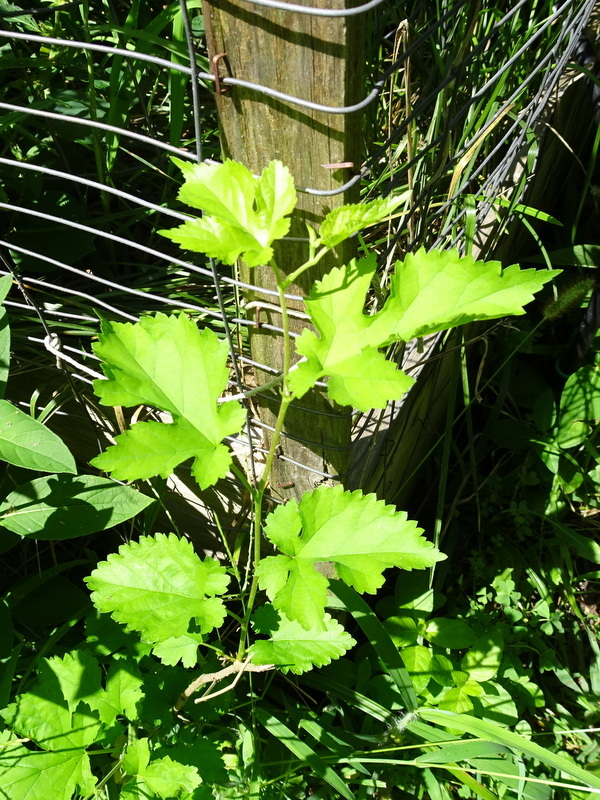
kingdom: Plantae
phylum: Tracheophyta
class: Magnoliopsida
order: Rosales
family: Moraceae
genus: Morus
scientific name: Morus alba
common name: White mulberry
